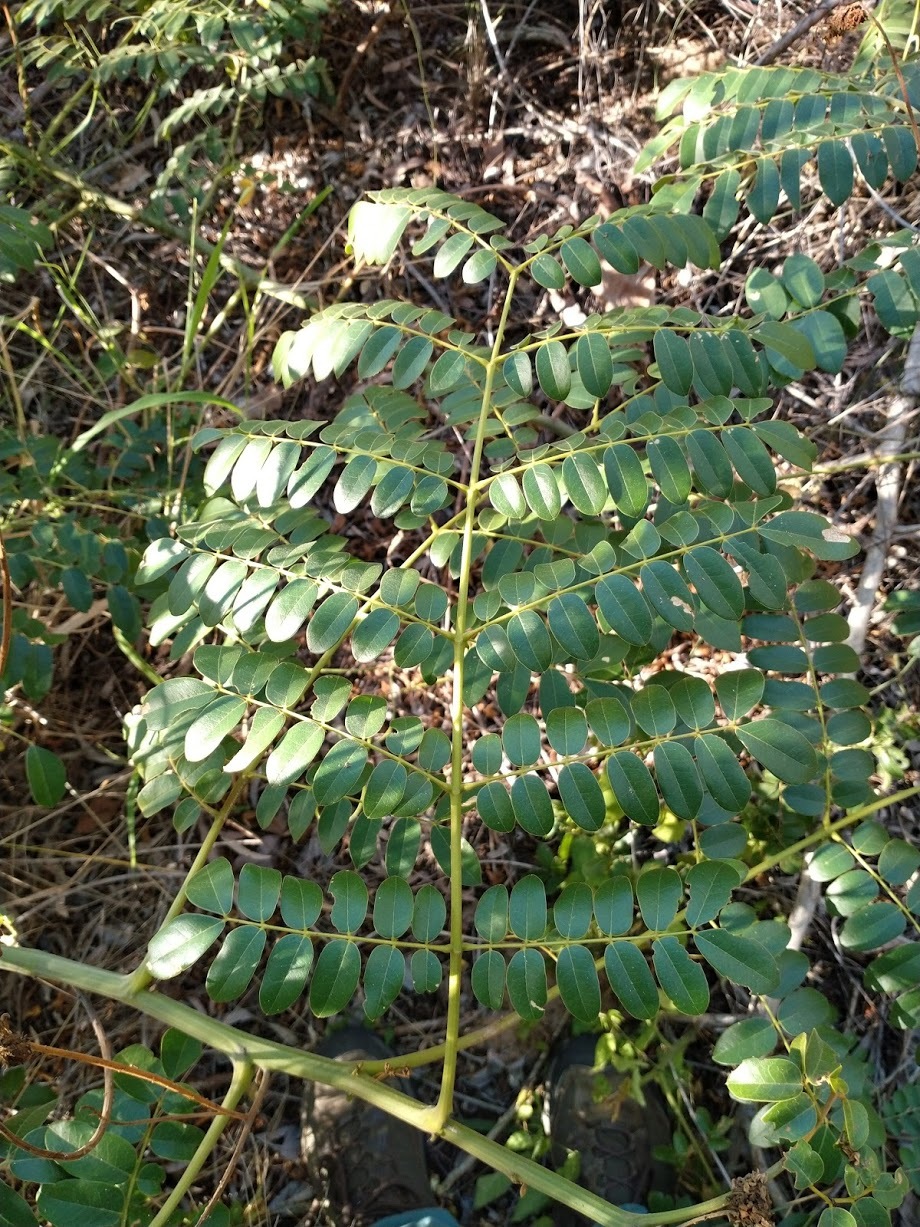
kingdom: Plantae
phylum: Tracheophyta
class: Magnoliopsida
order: Fabales
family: Fabaceae
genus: Guilandina
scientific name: Guilandina bonduc
